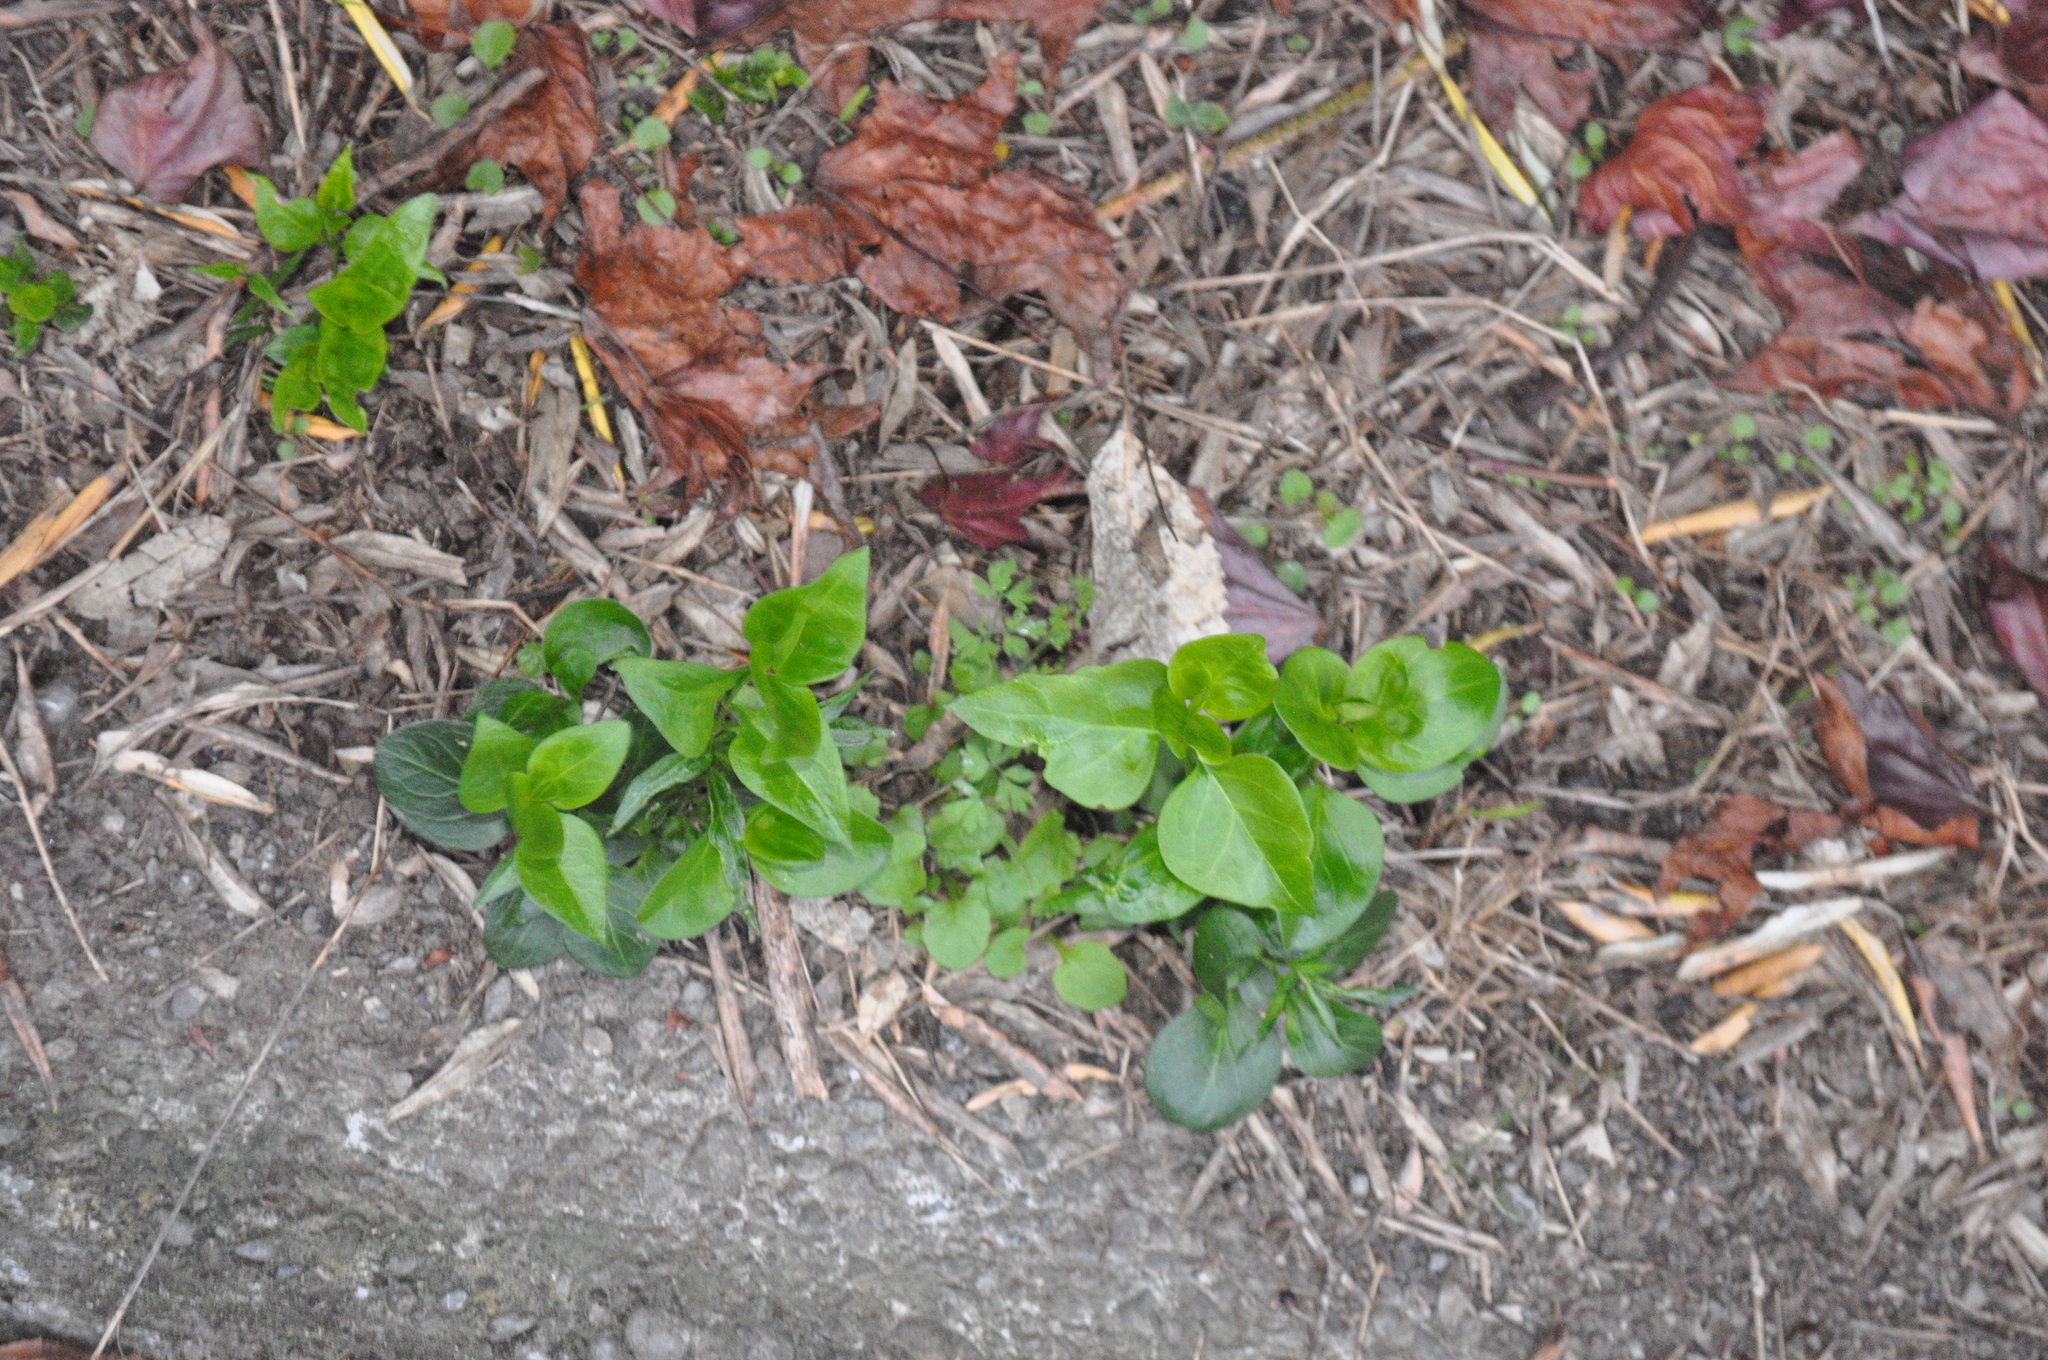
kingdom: Plantae
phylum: Tracheophyta
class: Magnoliopsida
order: Gentianales
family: Apocynaceae
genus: Vinca
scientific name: Vinca major
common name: Greater periwinkle
